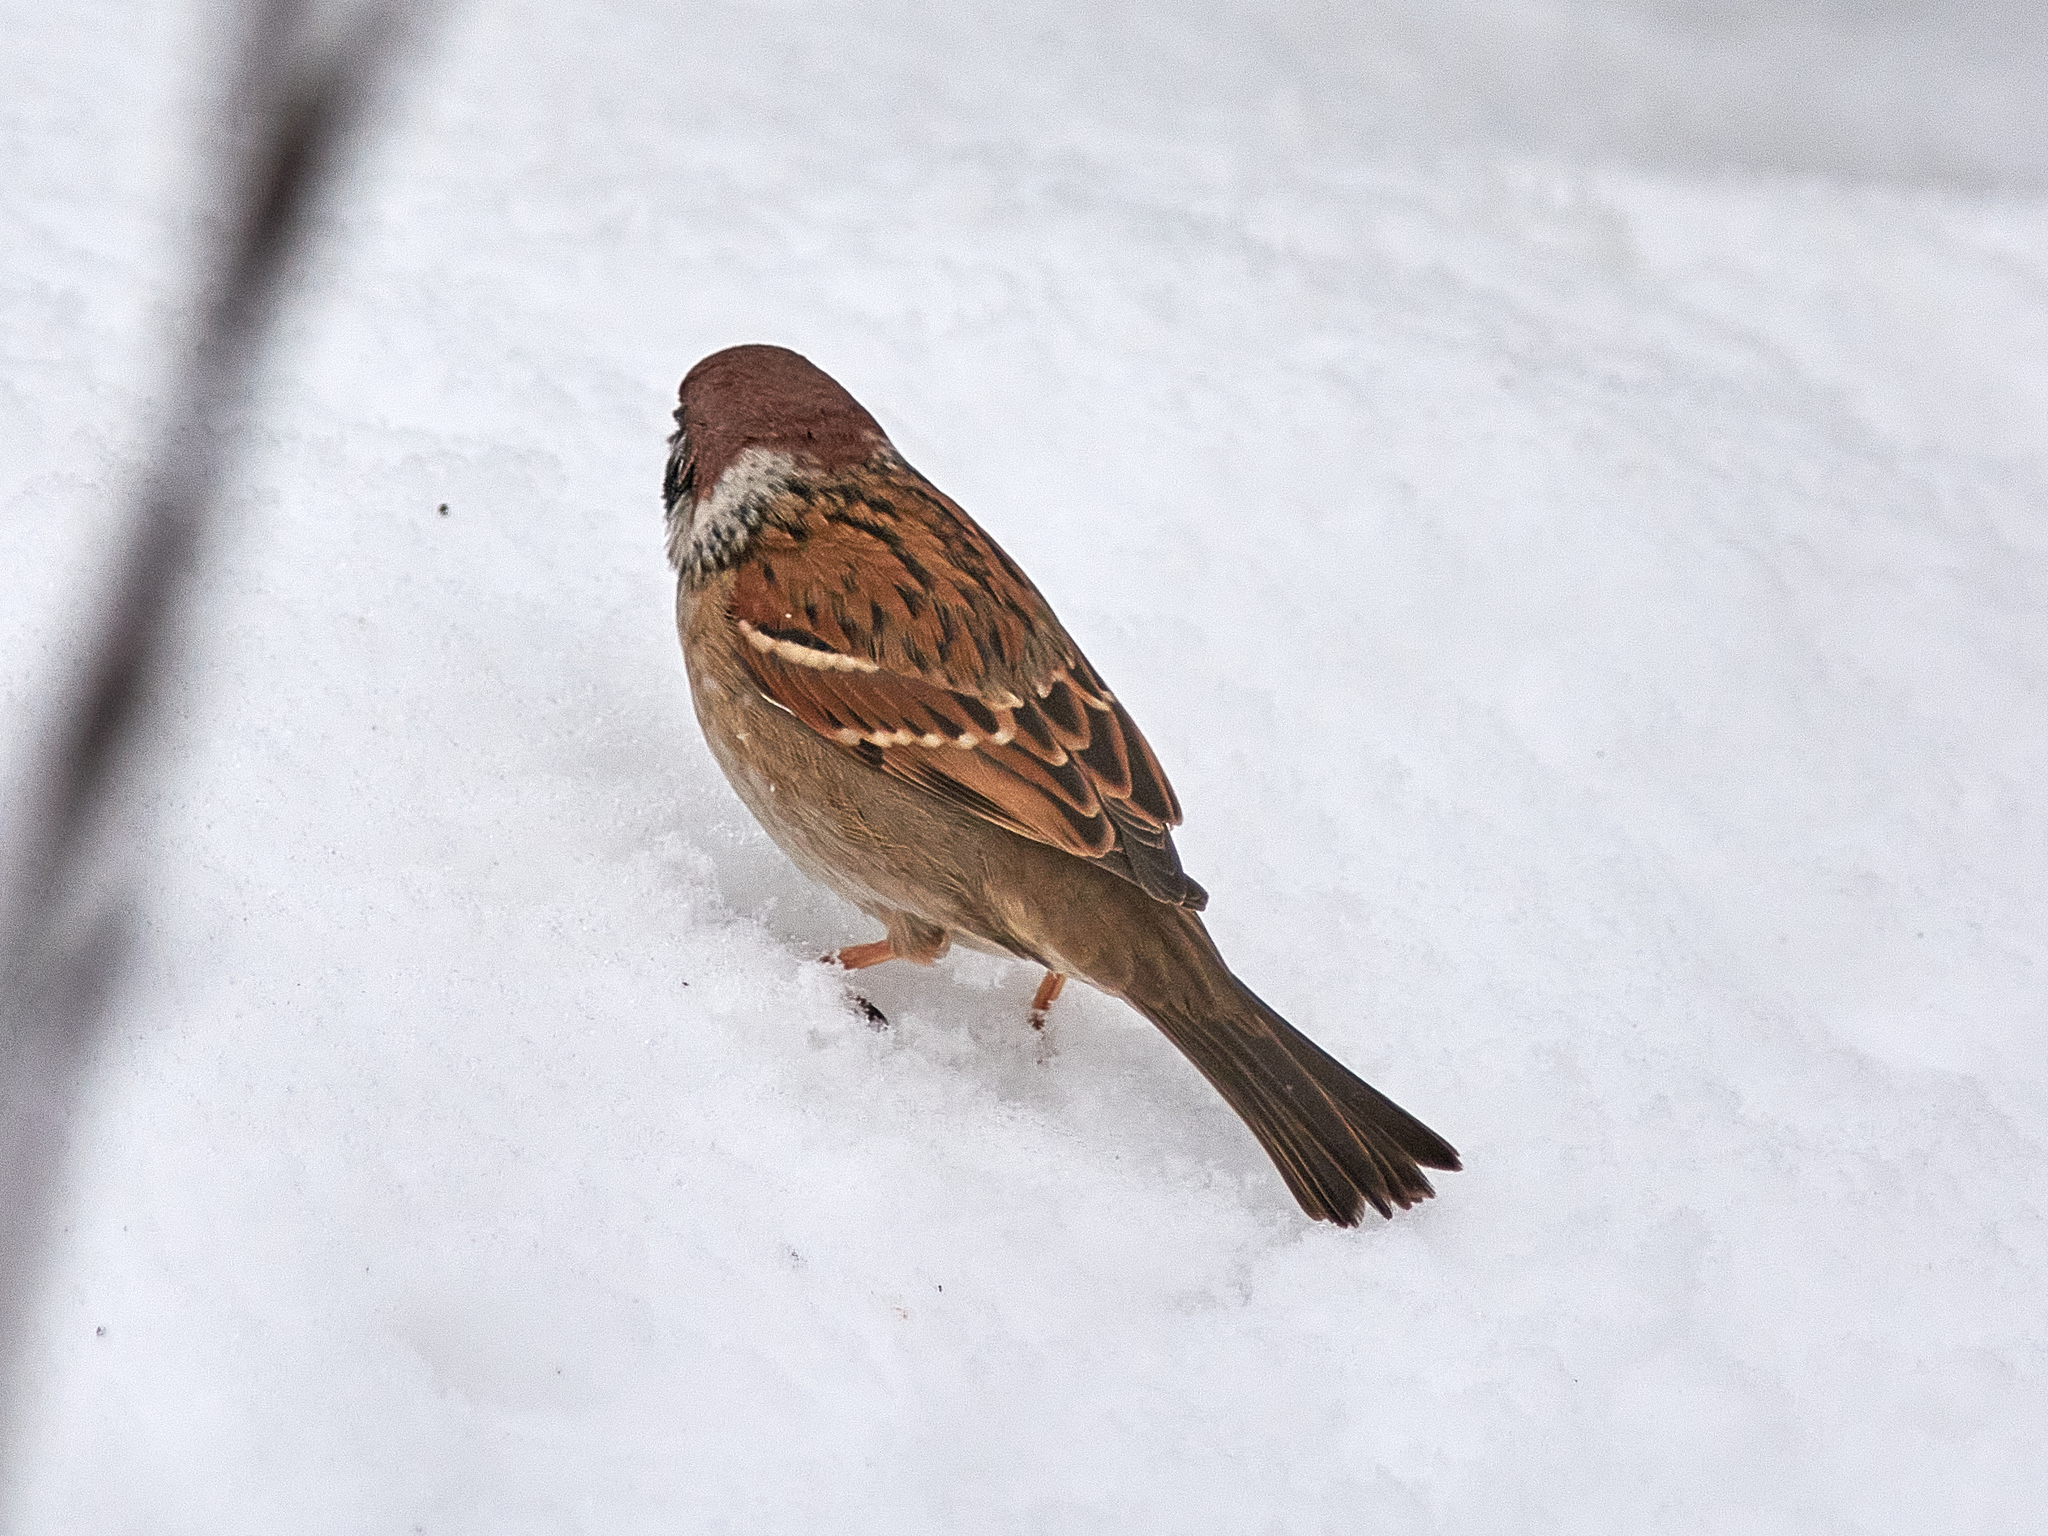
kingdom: Animalia
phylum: Chordata
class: Aves
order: Passeriformes
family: Passeridae
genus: Passer
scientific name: Passer montanus
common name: Eurasian tree sparrow
